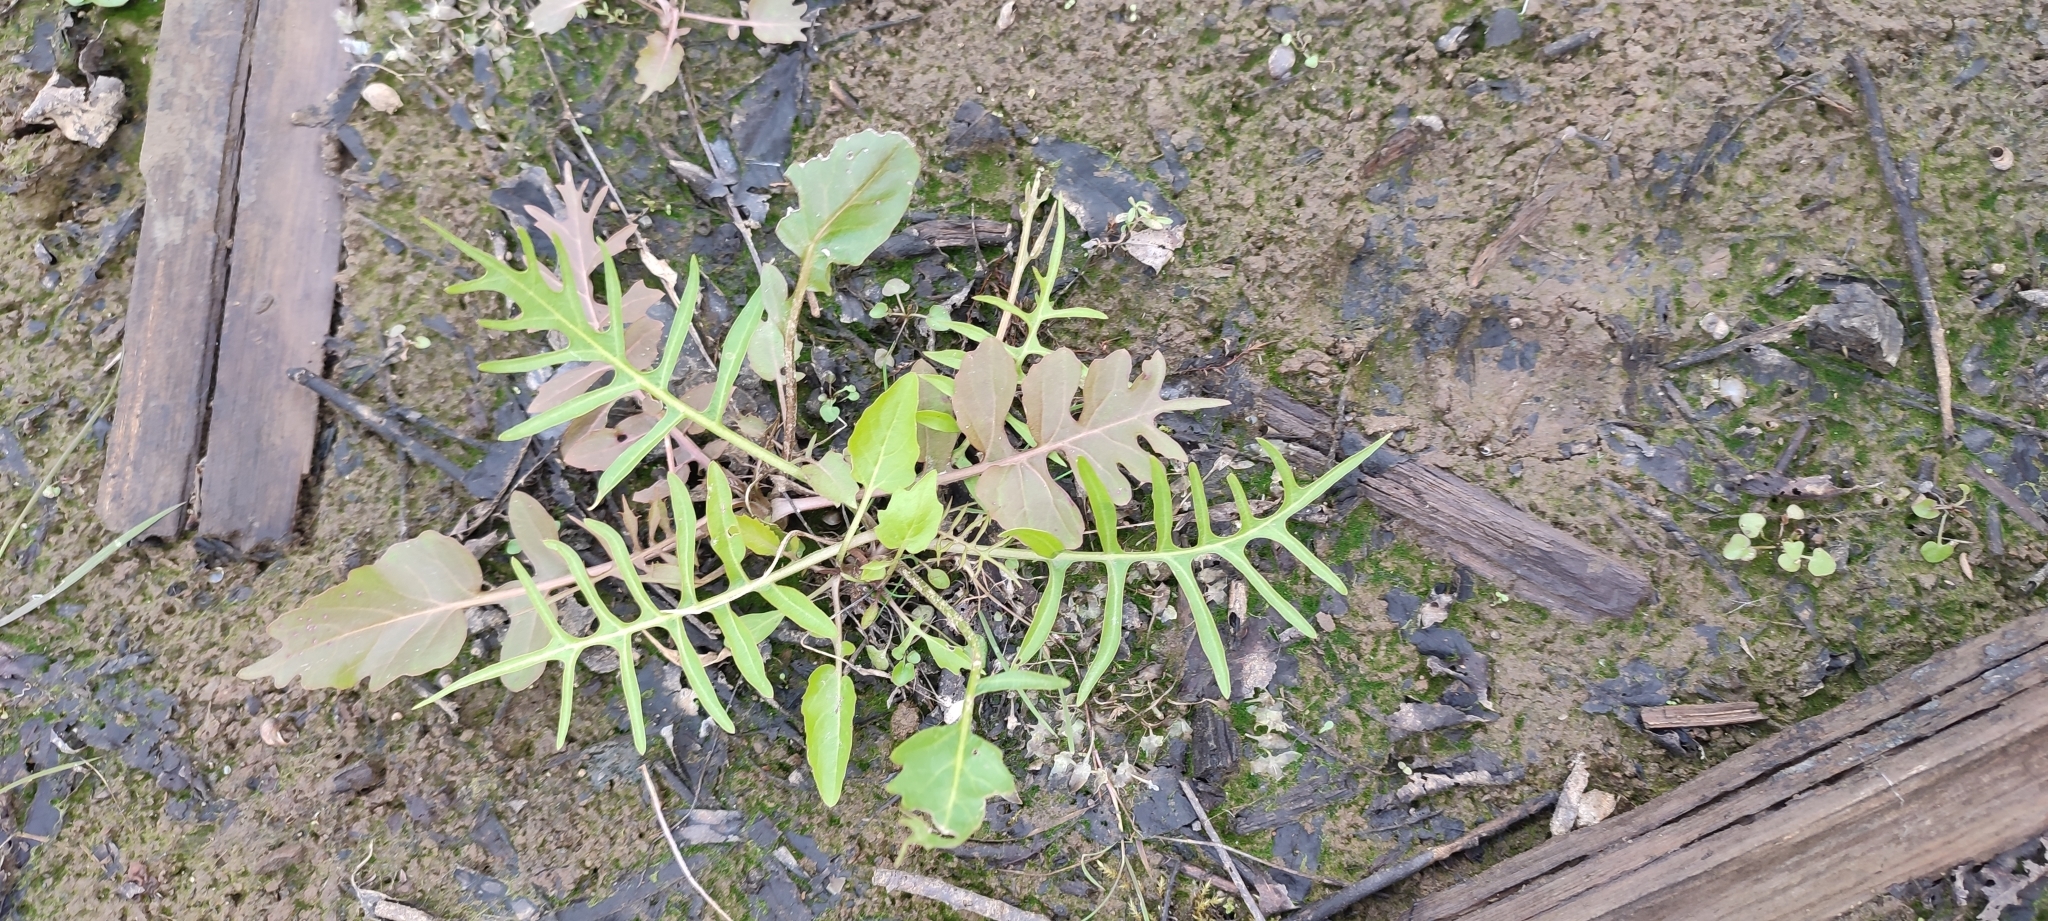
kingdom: Plantae
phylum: Tracheophyta
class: Magnoliopsida
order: Brassicales
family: Brassicaceae
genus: Rorippa
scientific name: Rorippa amphibia
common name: Great yellow-cress
